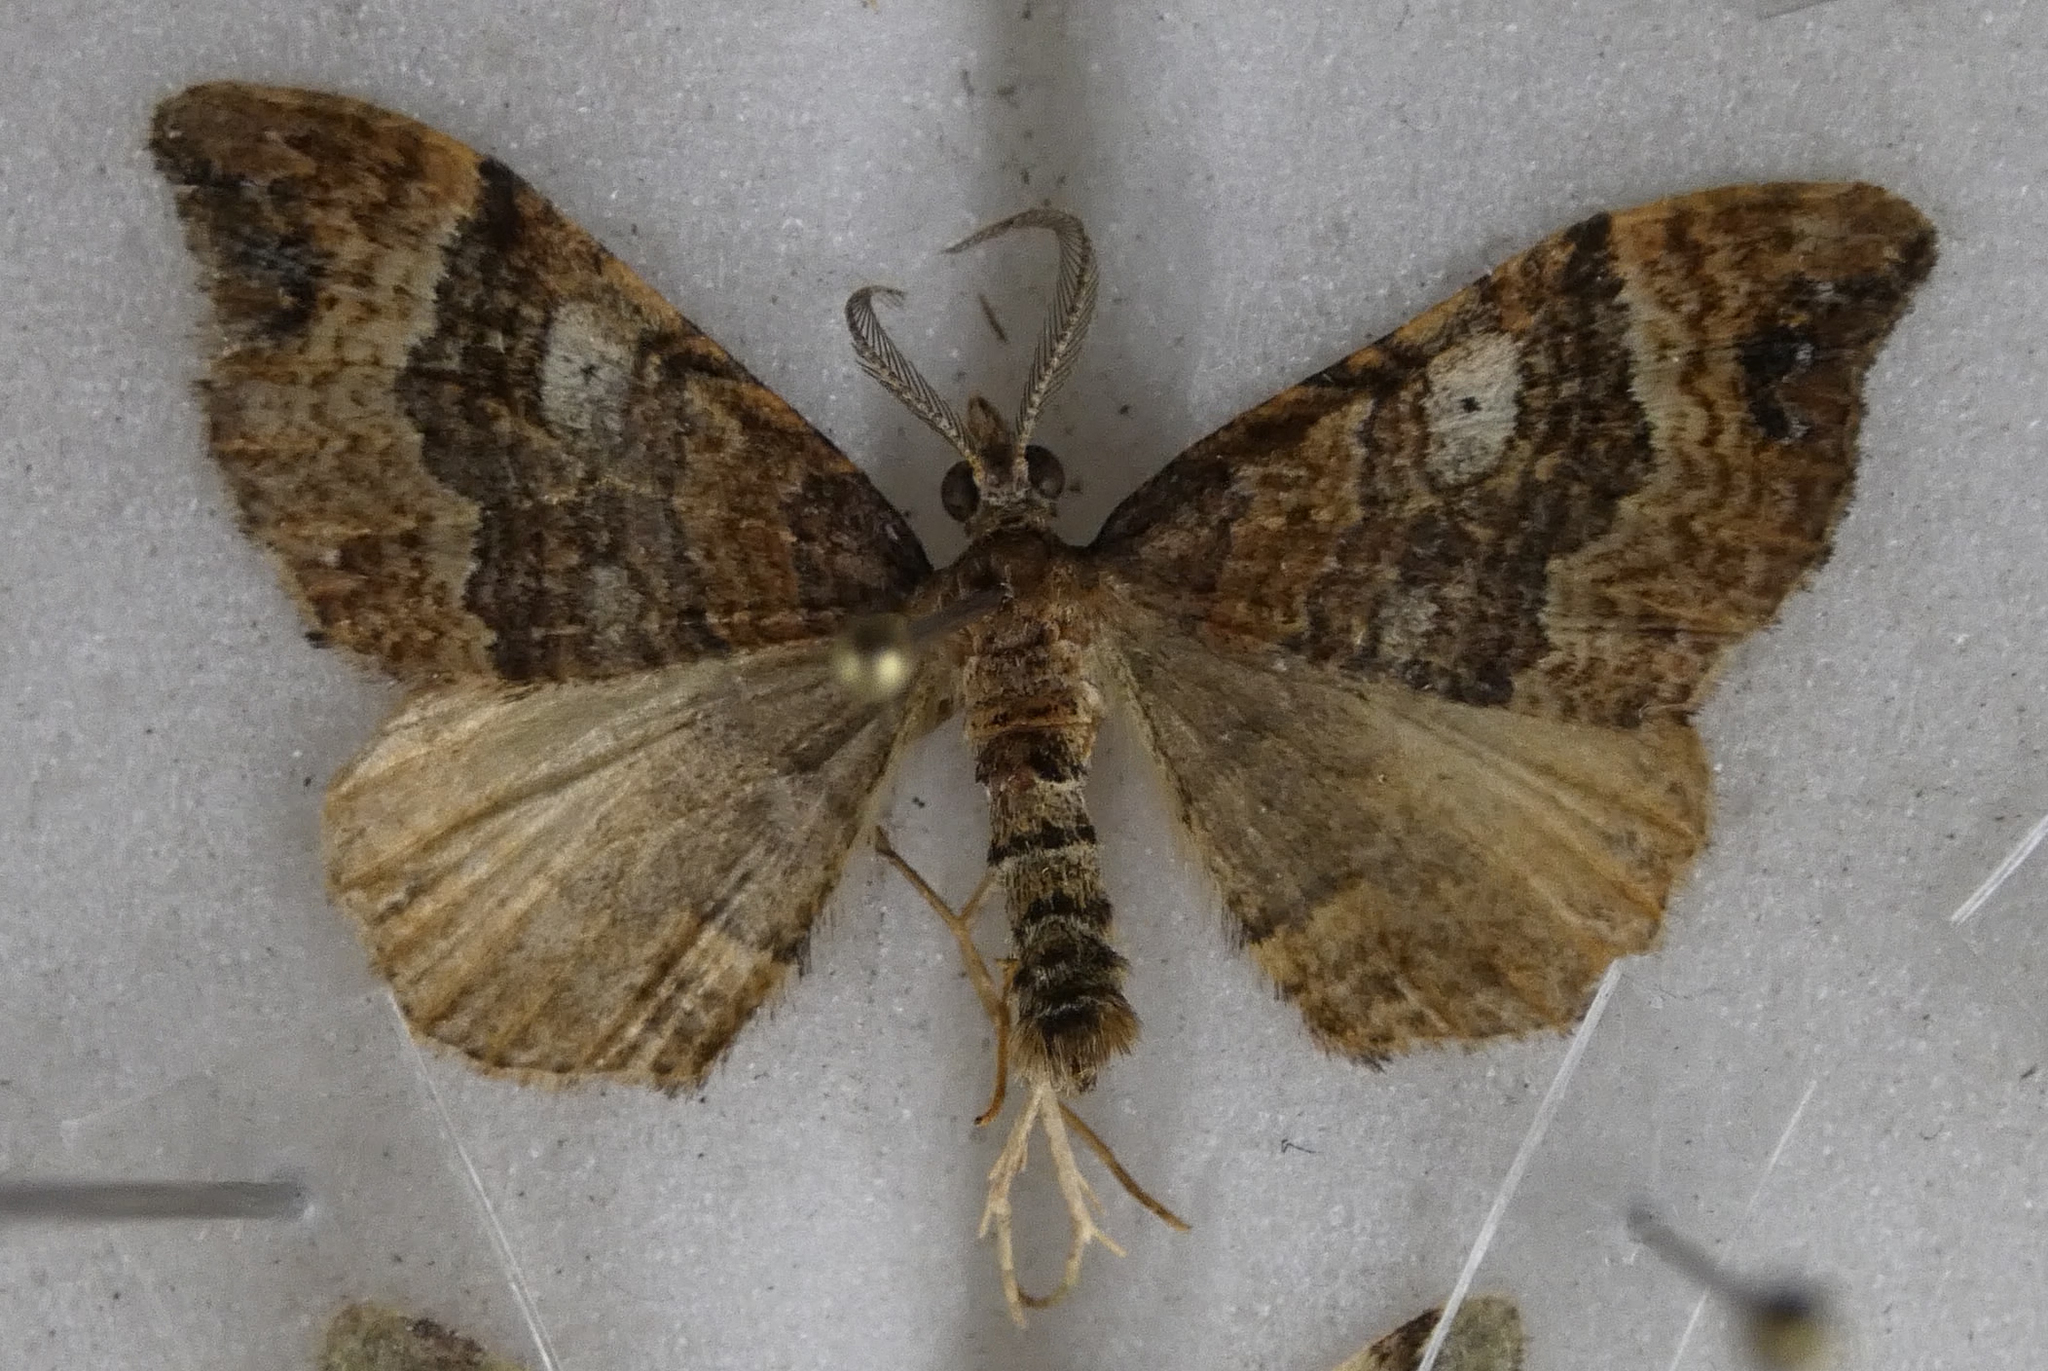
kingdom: Animalia
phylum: Arthropoda
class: Insecta
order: Lepidoptera
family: Geometridae
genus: Homodotis
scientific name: Homodotis megaspilata
